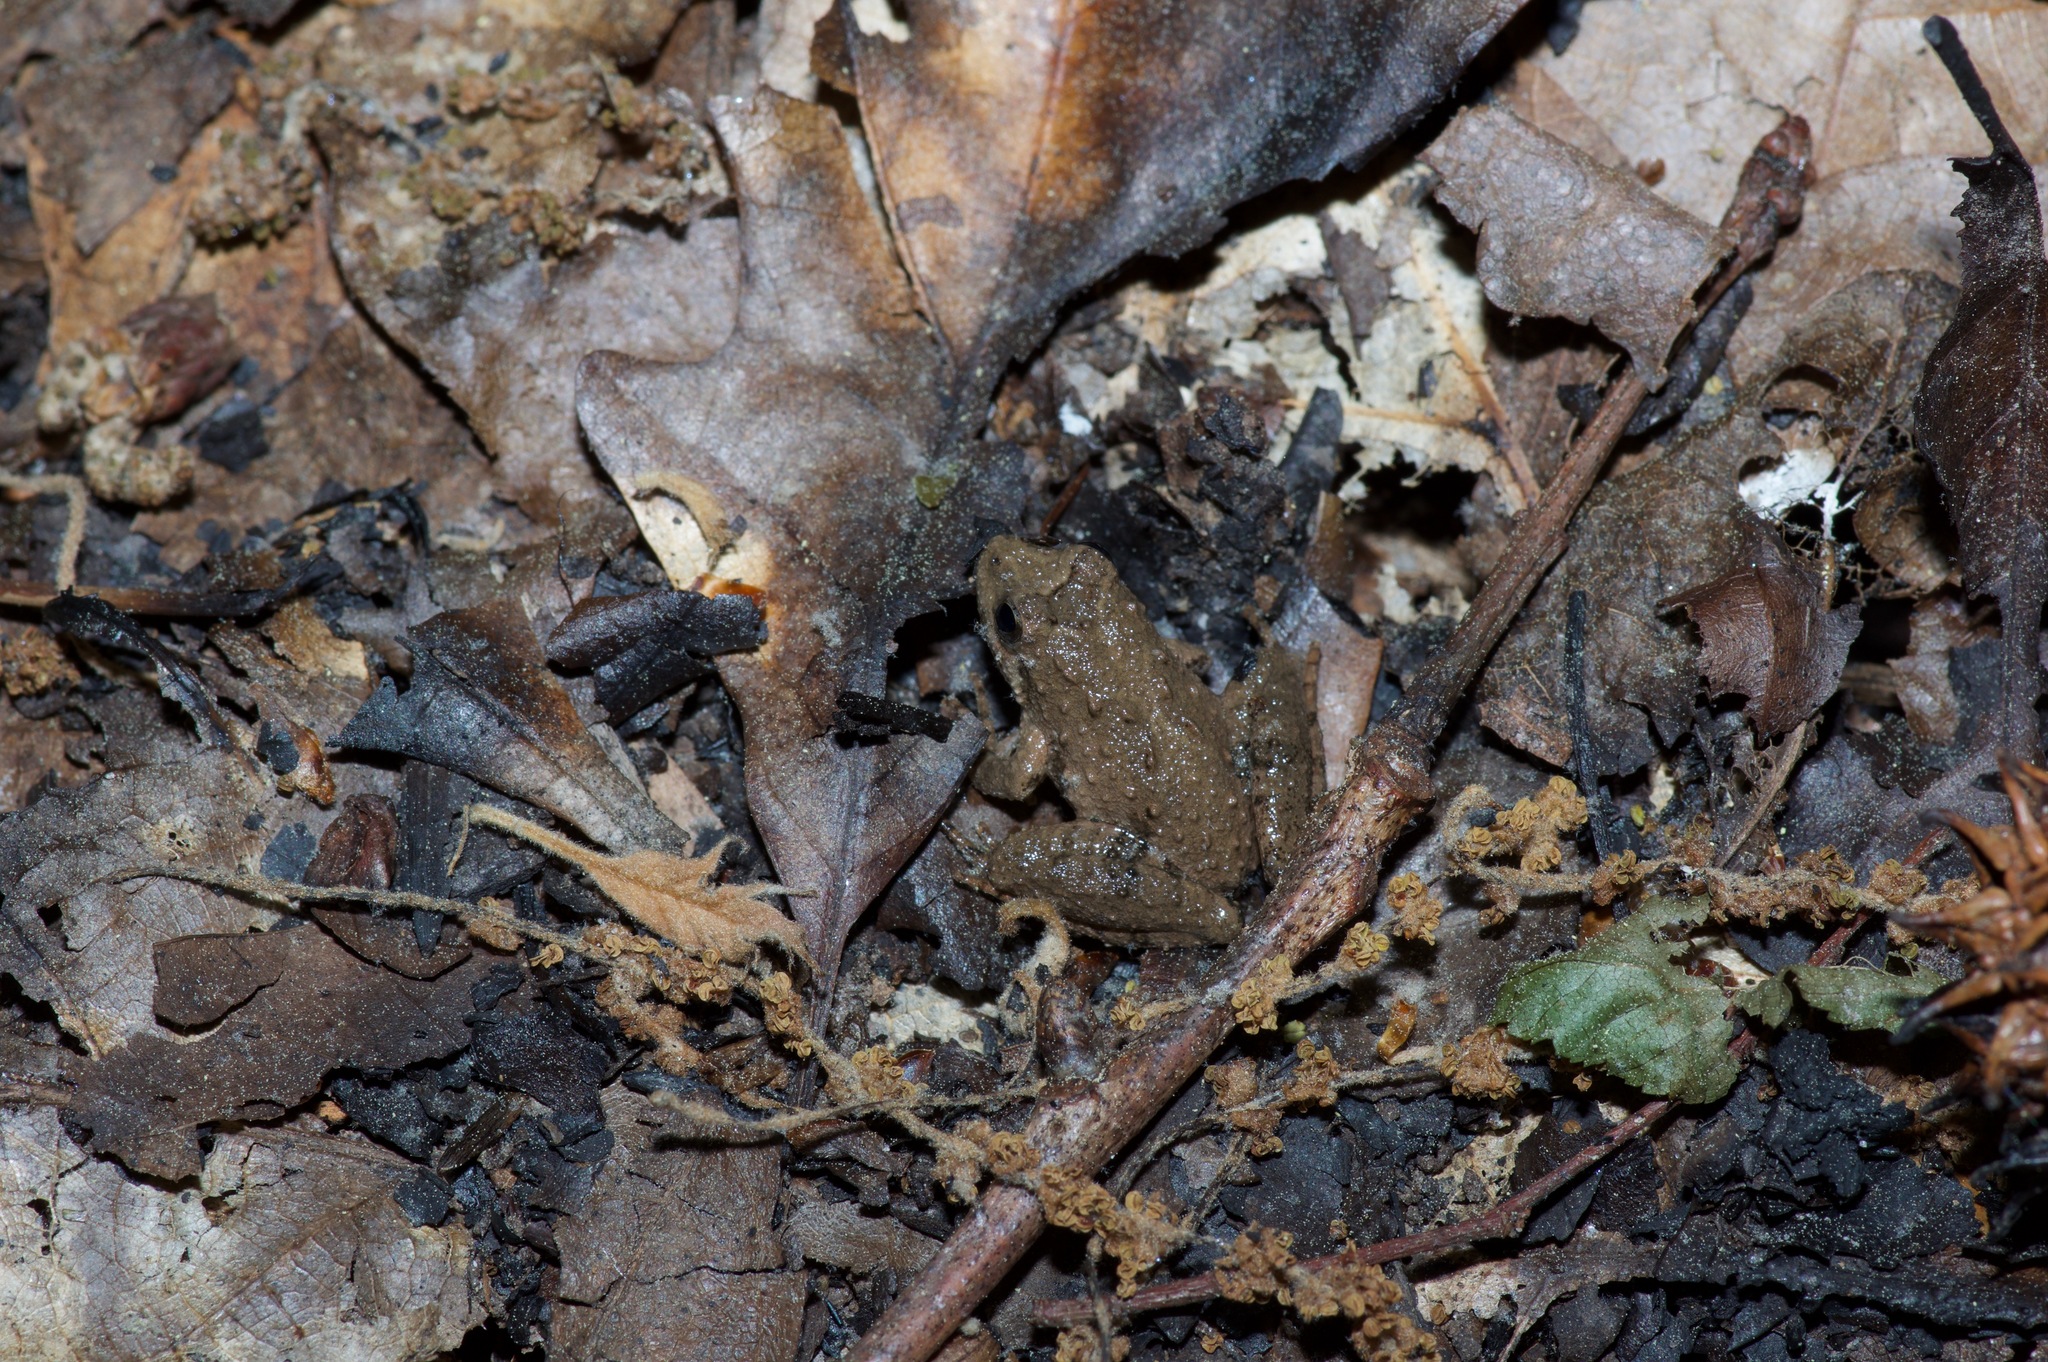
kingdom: Animalia
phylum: Chordata
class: Amphibia
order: Anura
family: Hylidae
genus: Acris
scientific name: Acris blanchardi
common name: Blanchard's cricket frog
